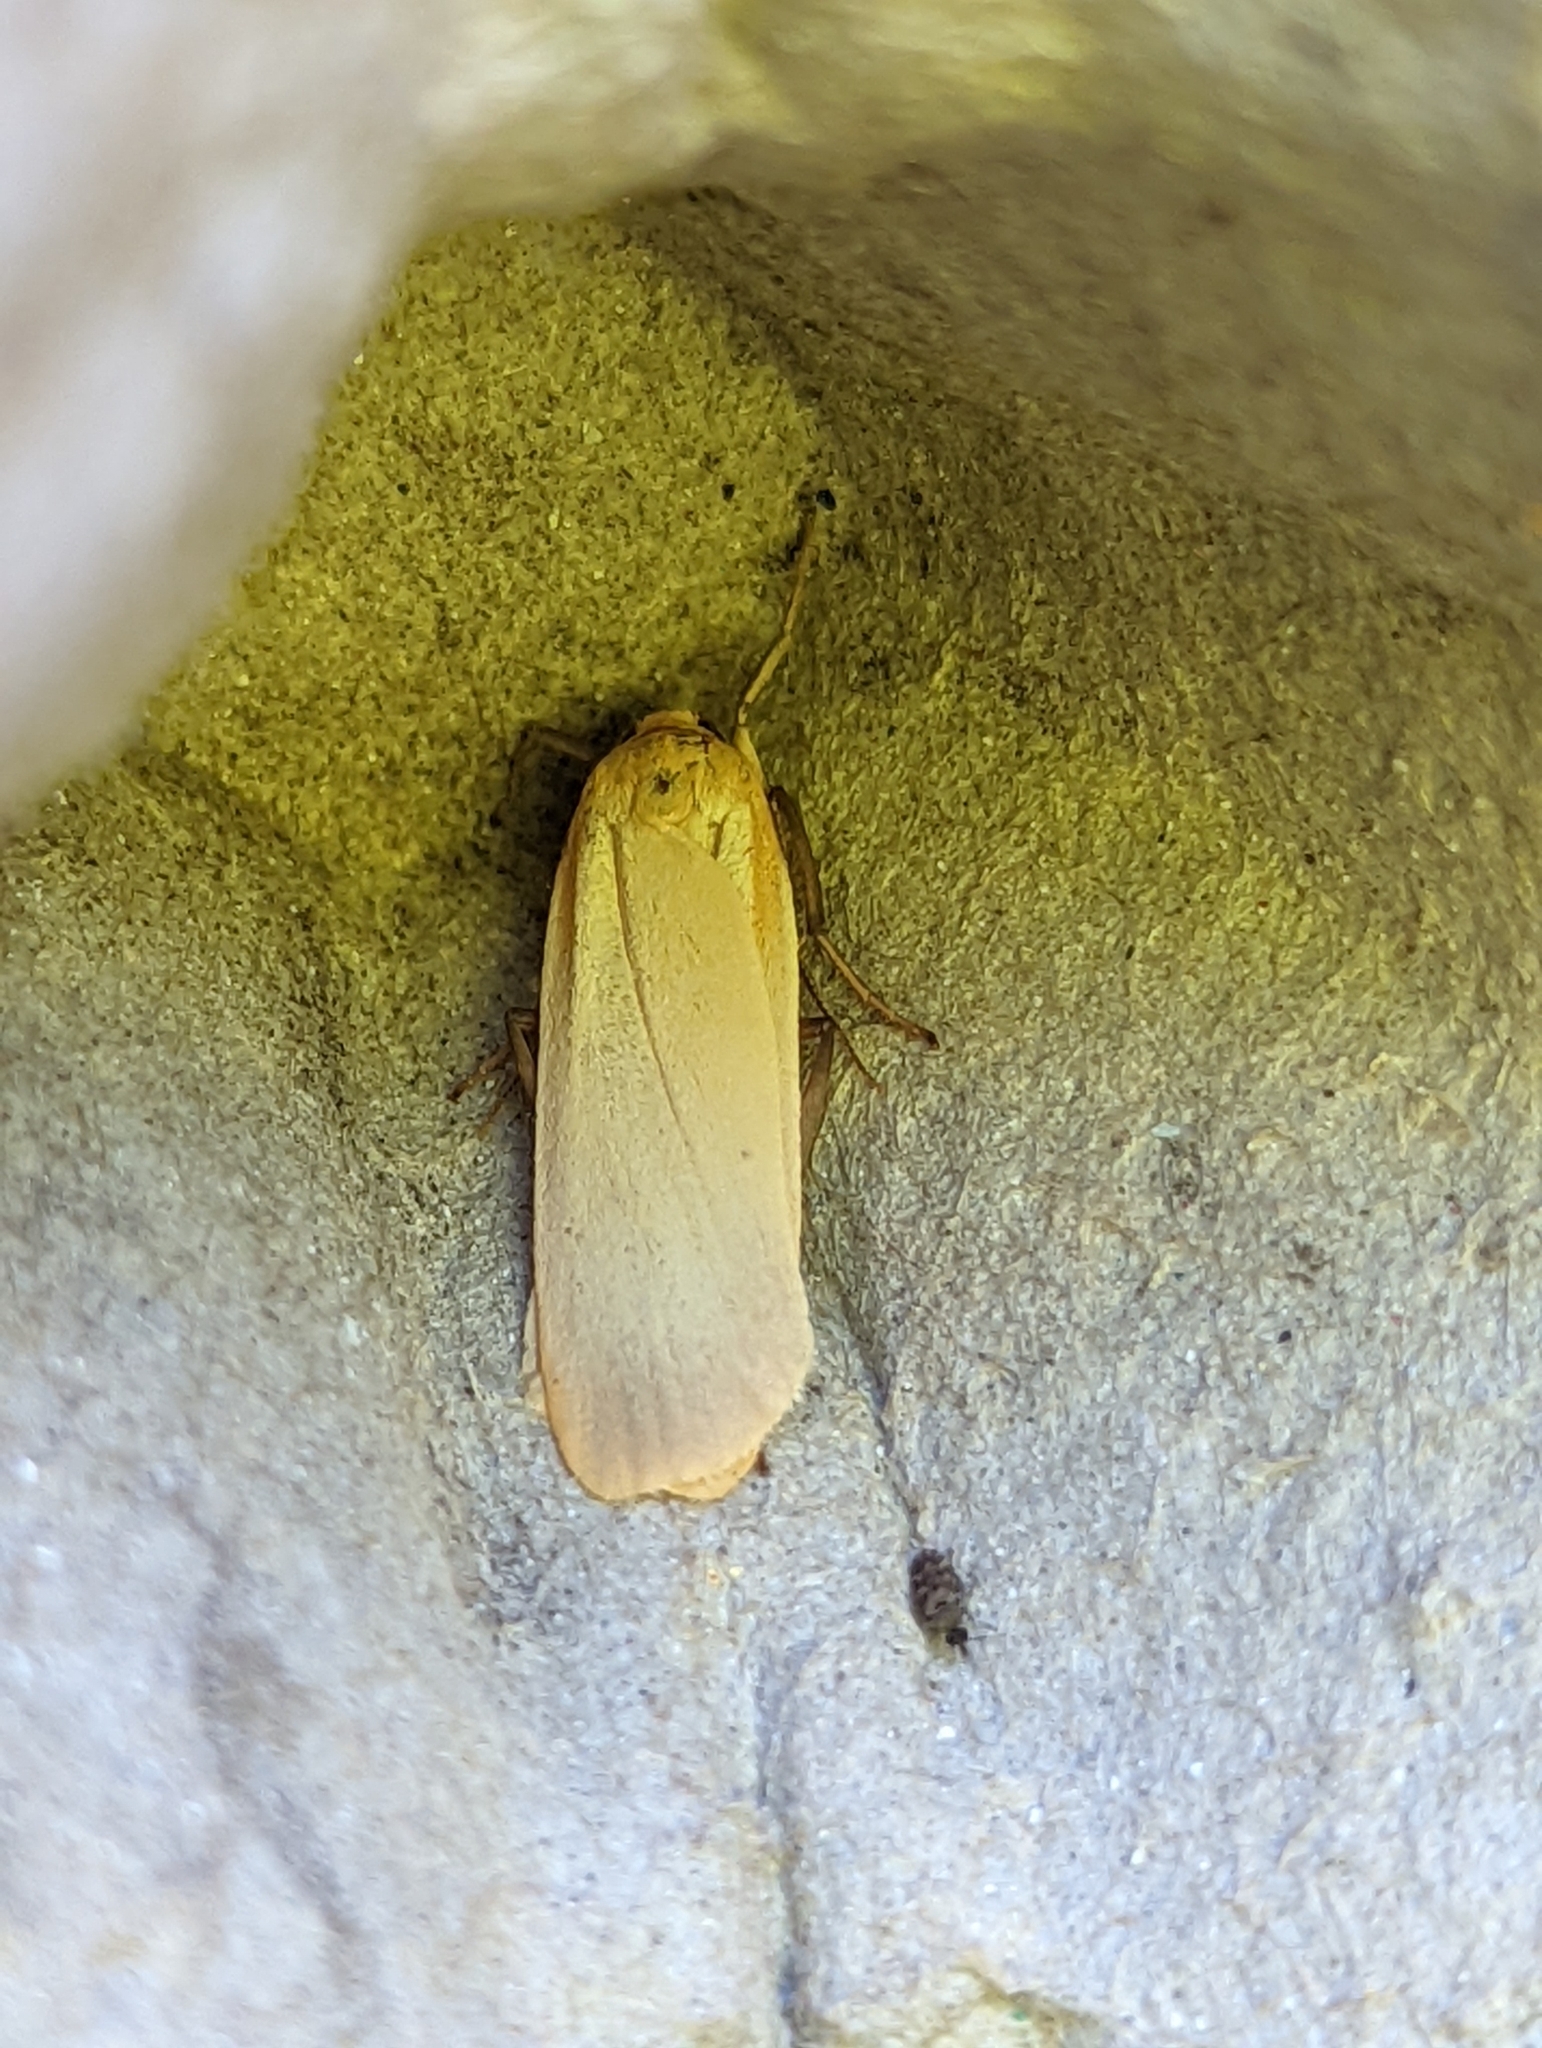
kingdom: Animalia
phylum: Arthropoda
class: Insecta
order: Lepidoptera
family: Erebidae
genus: Katha
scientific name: Katha depressa
